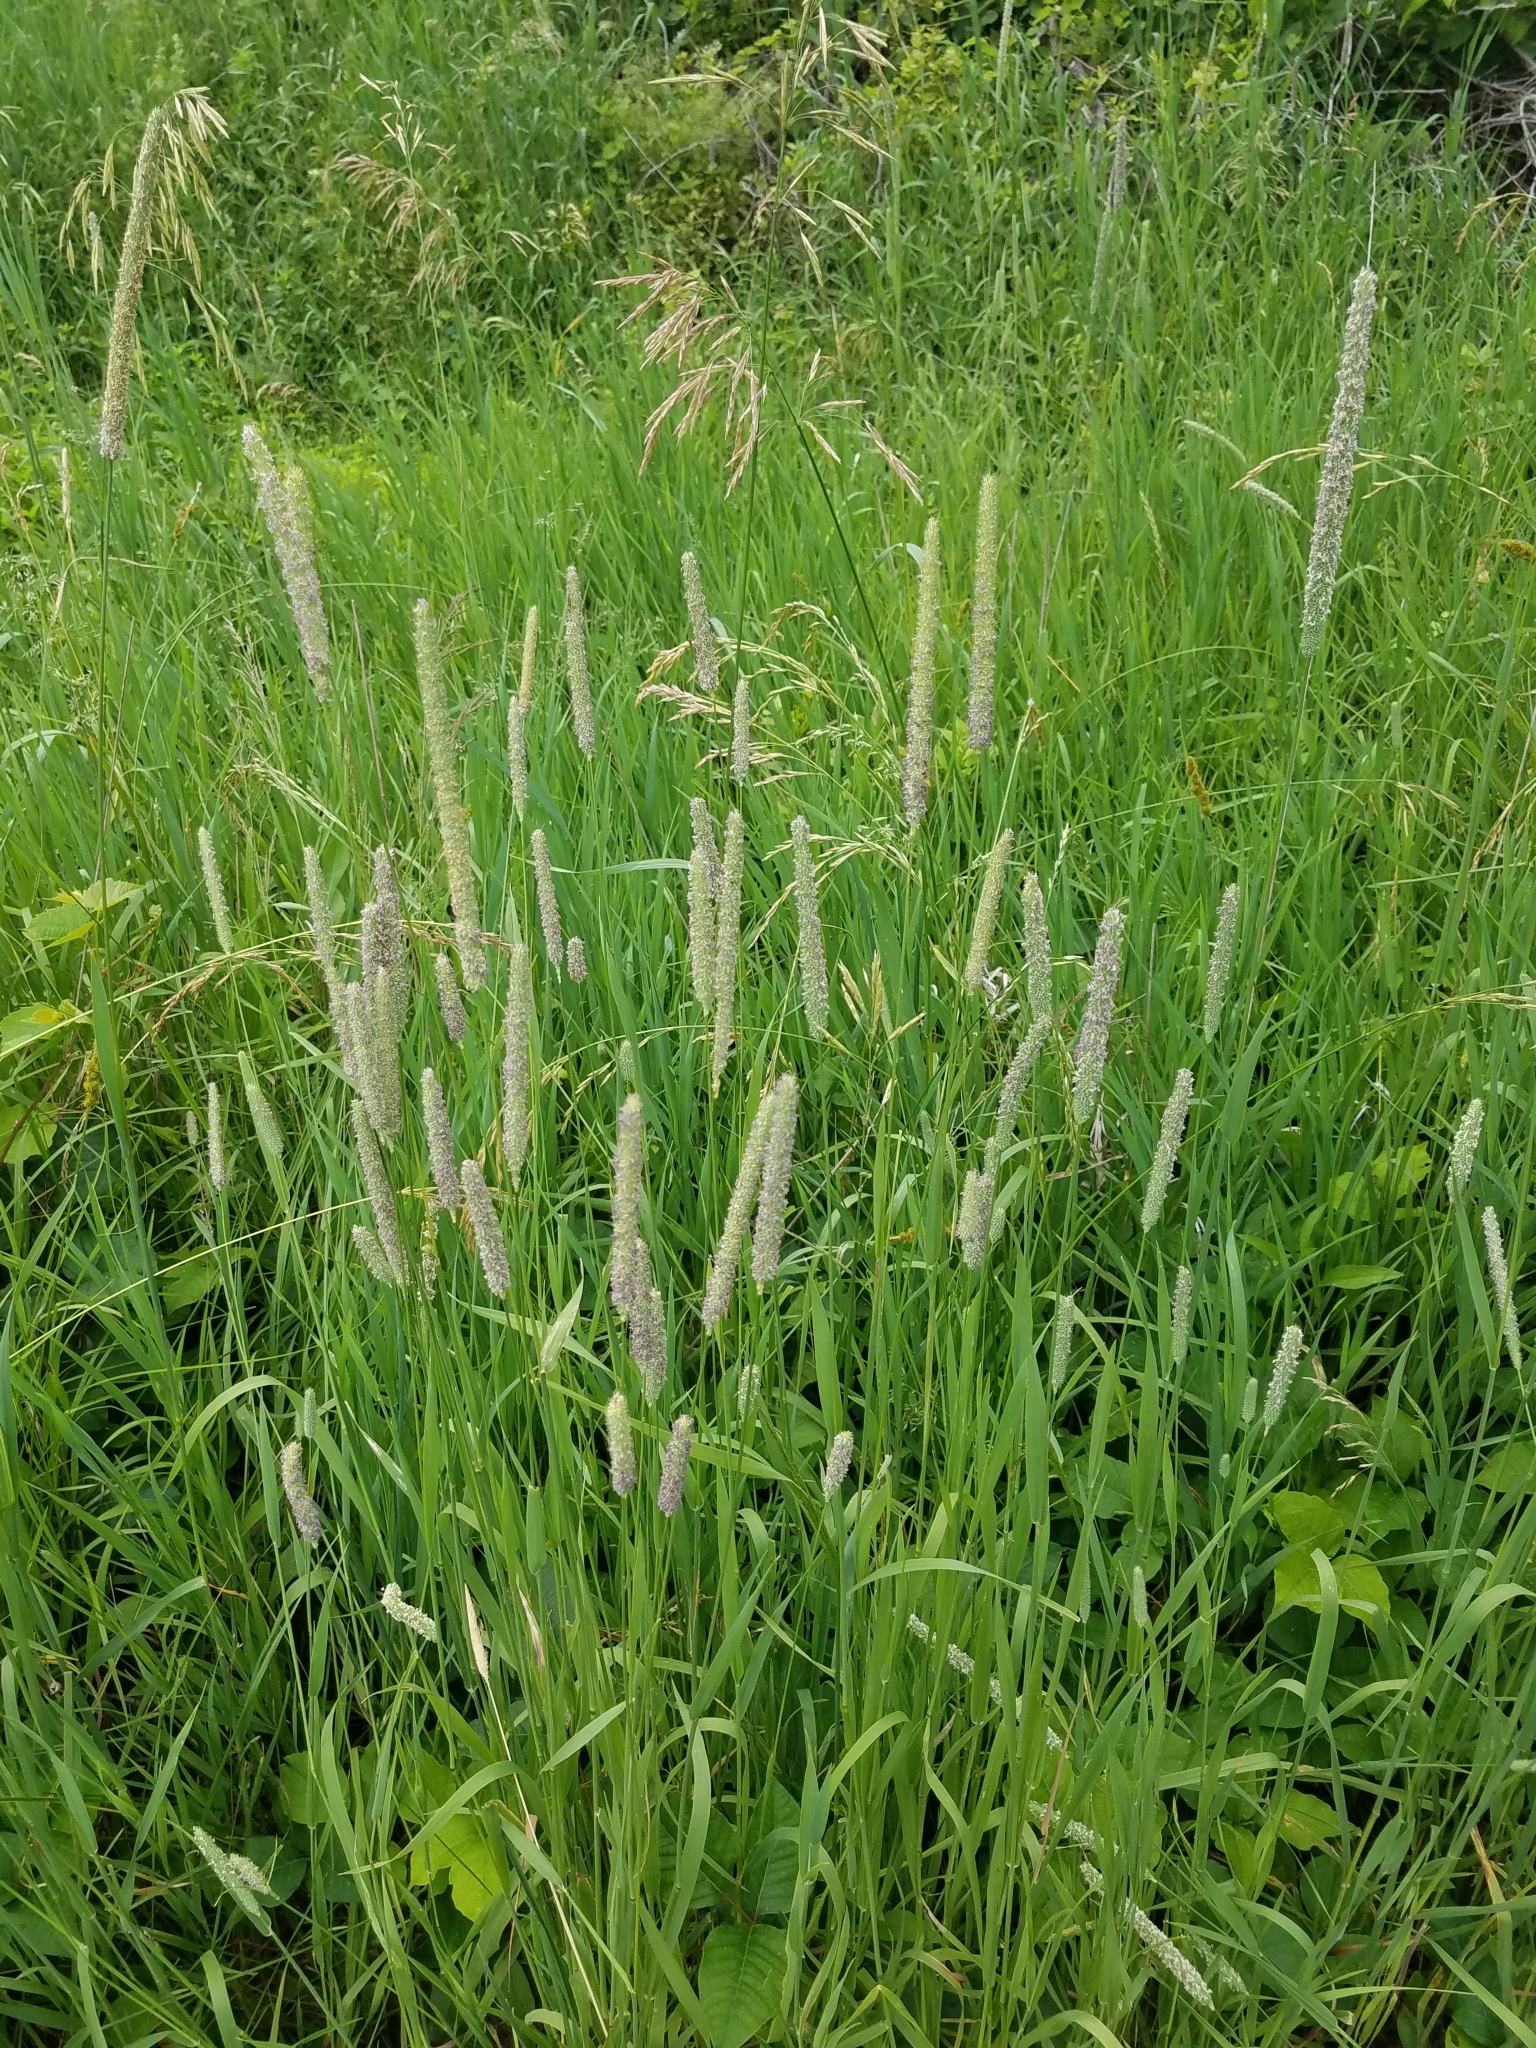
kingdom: Plantae
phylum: Tracheophyta
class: Liliopsida
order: Poales
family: Poaceae
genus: Phleum
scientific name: Phleum pratense
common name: Timothy grass
